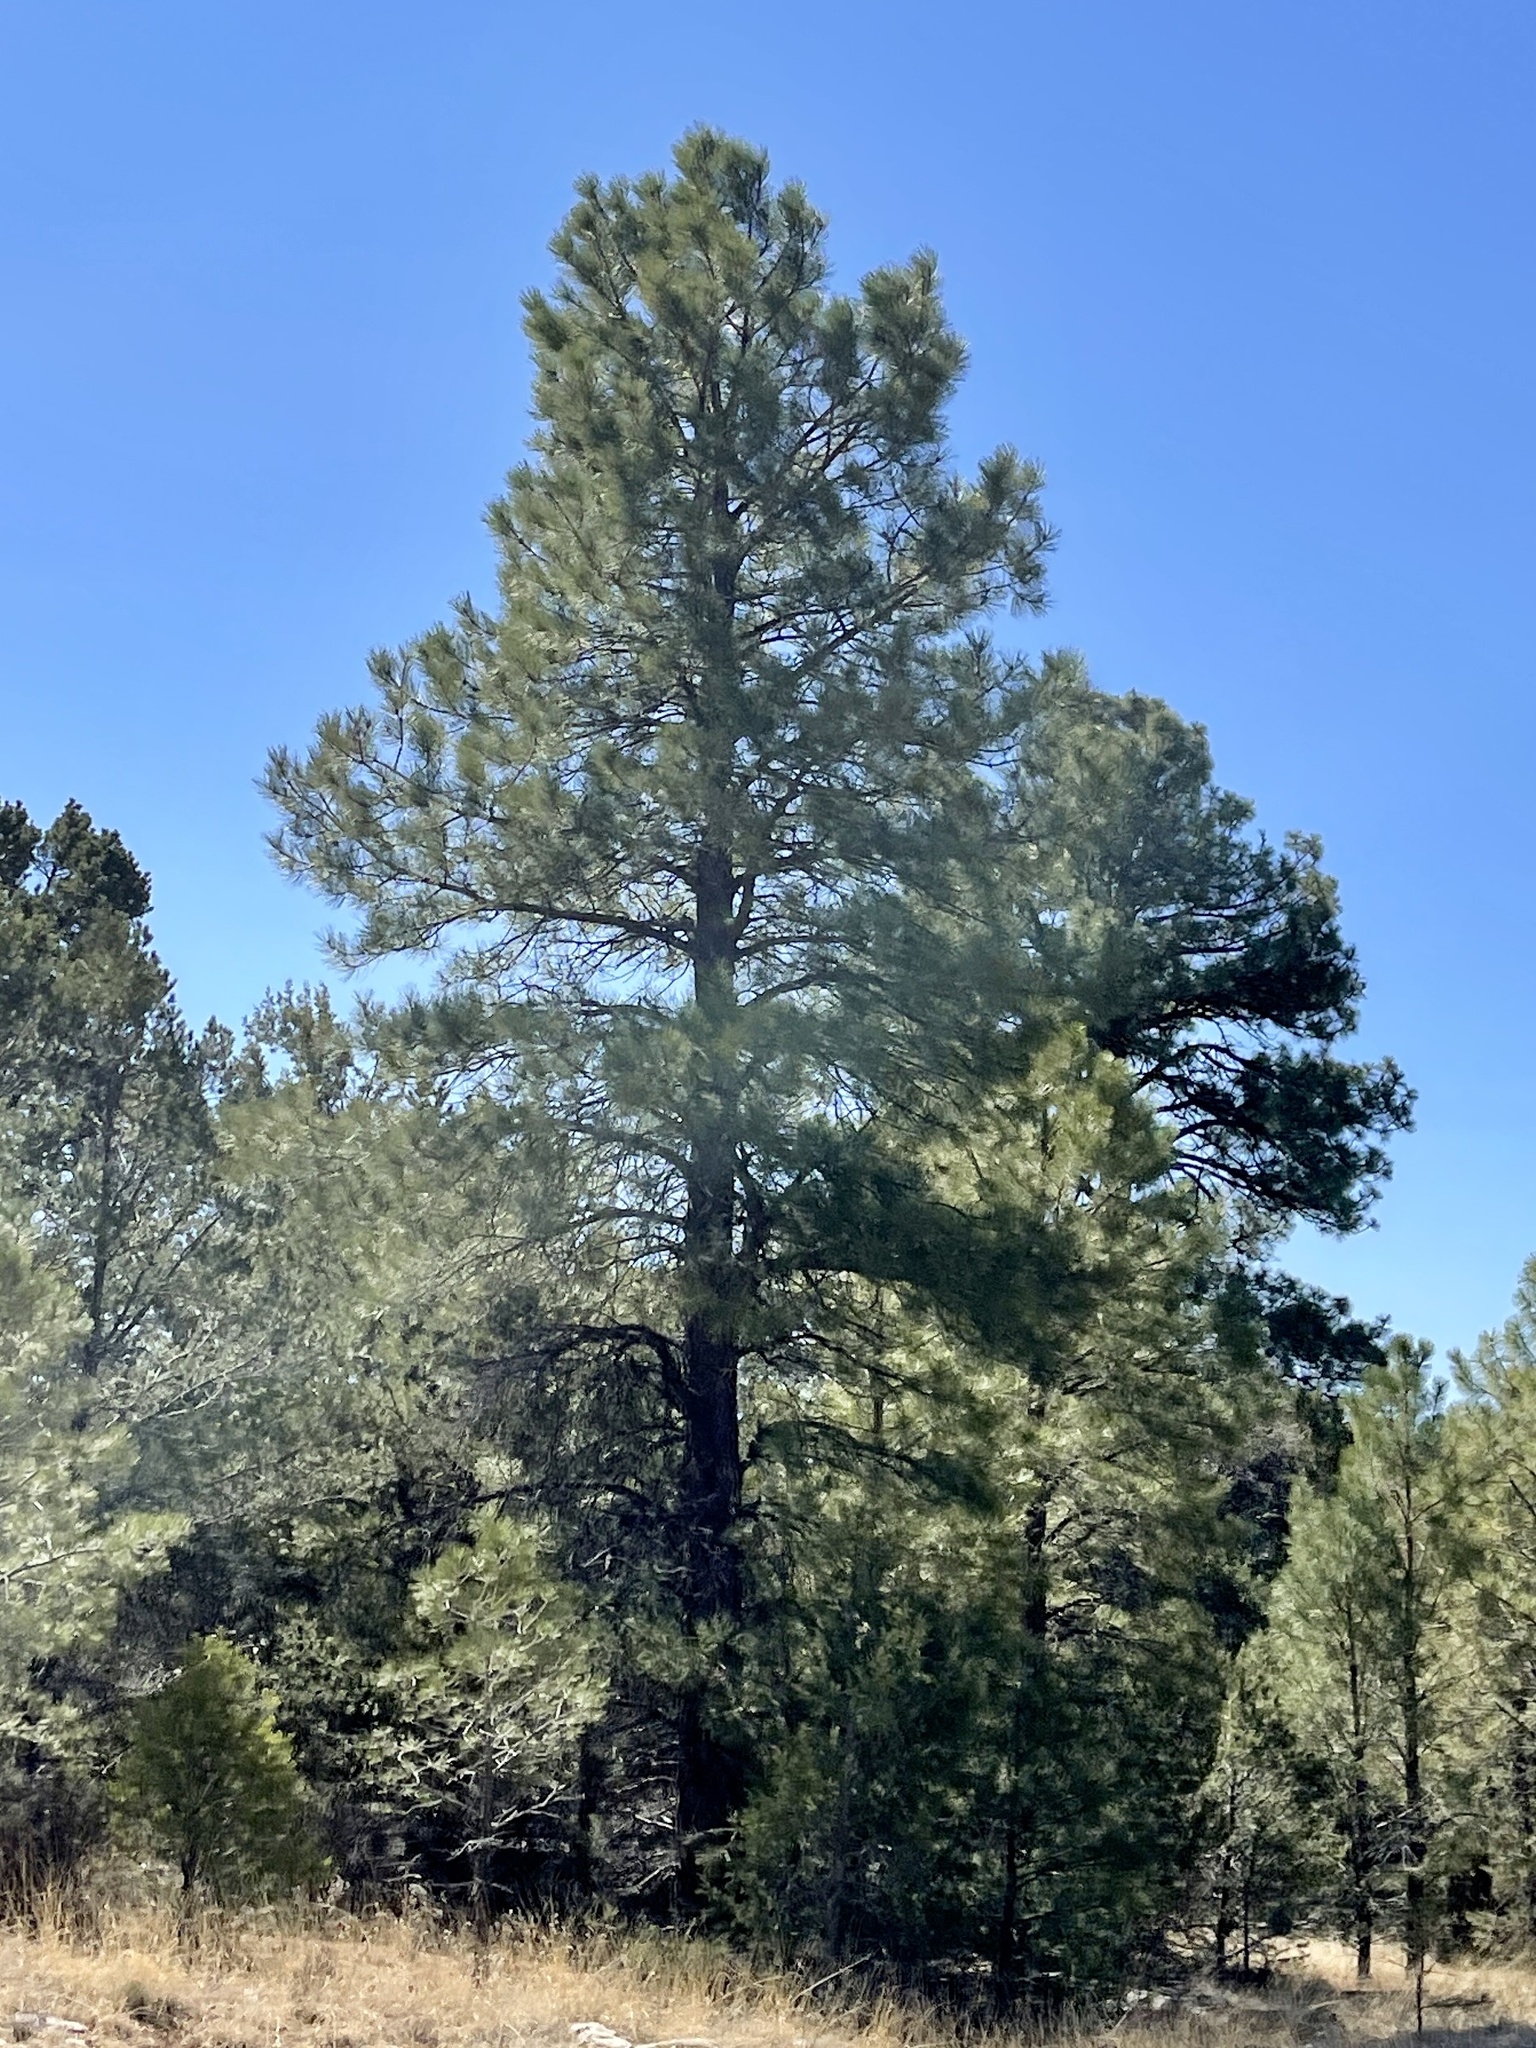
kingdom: Plantae
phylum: Tracheophyta
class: Pinopsida
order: Pinales
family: Pinaceae
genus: Pinus
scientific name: Pinus ponderosa
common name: Western yellow-pine
